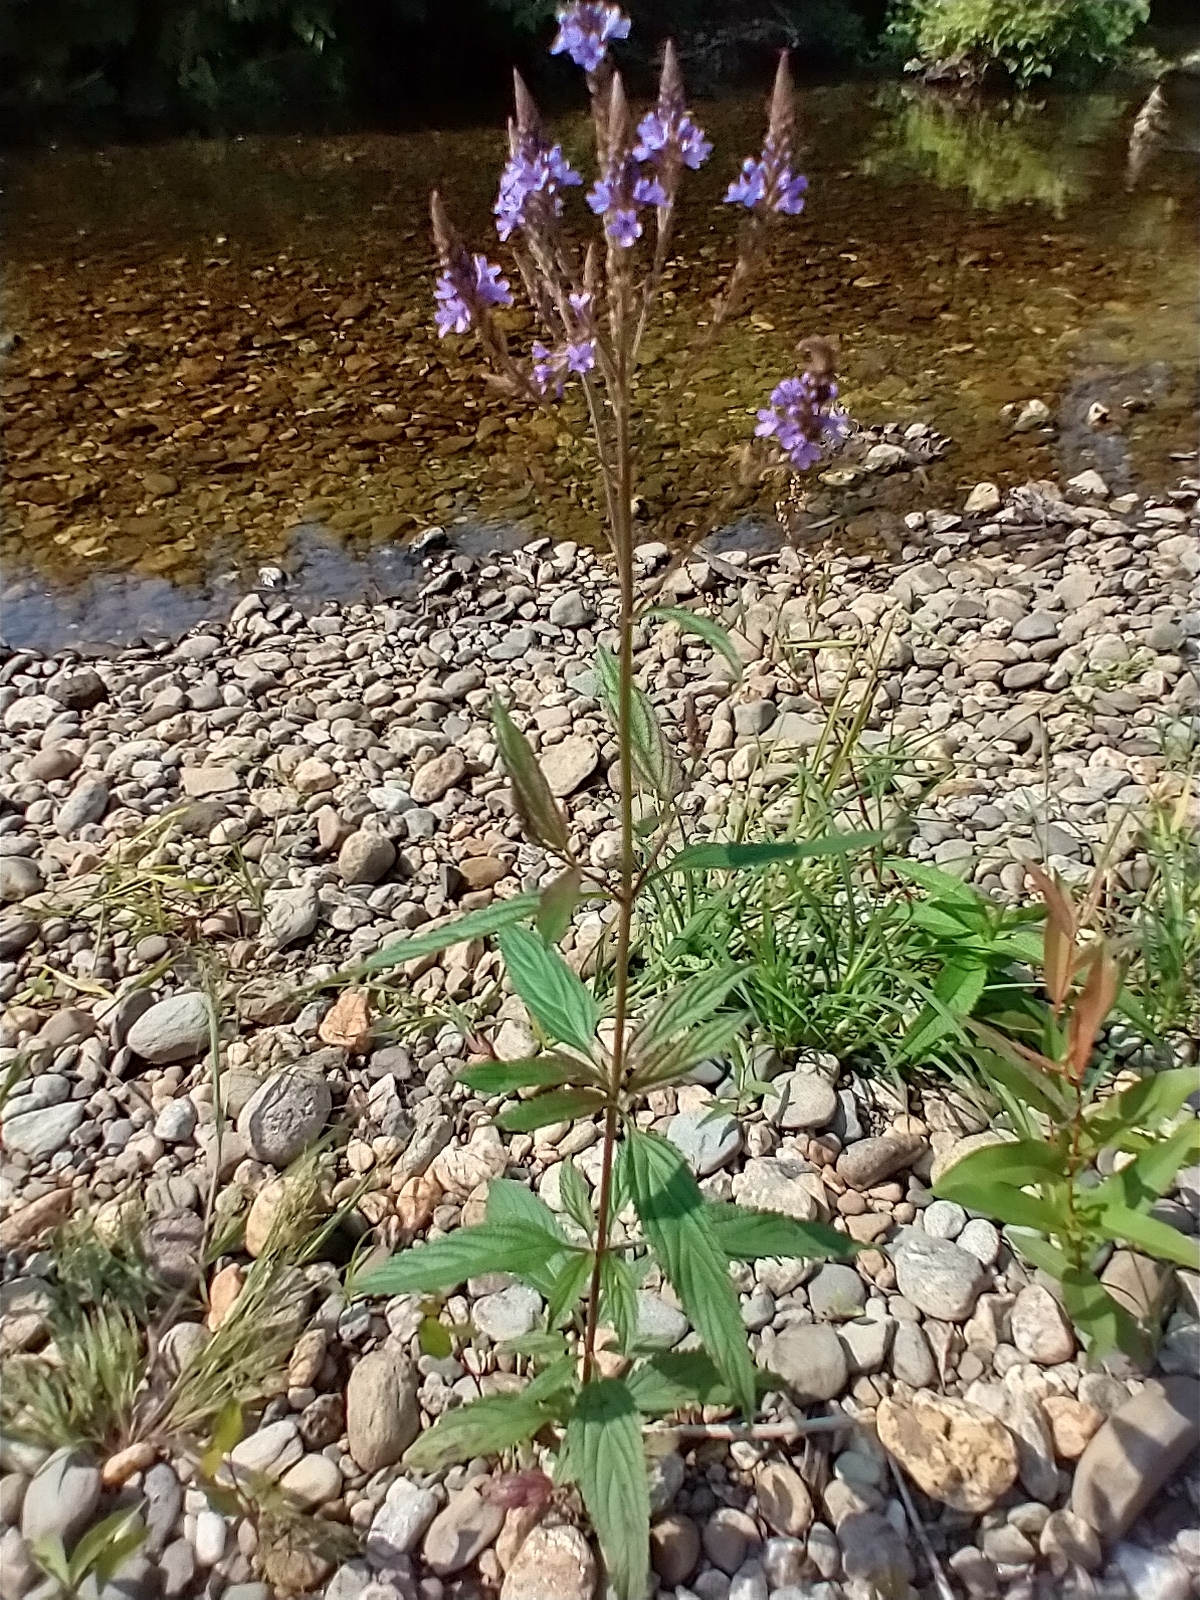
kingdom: Plantae
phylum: Tracheophyta
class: Magnoliopsida
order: Lamiales
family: Verbenaceae
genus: Verbena
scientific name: Verbena hastata
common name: American blue vervain
